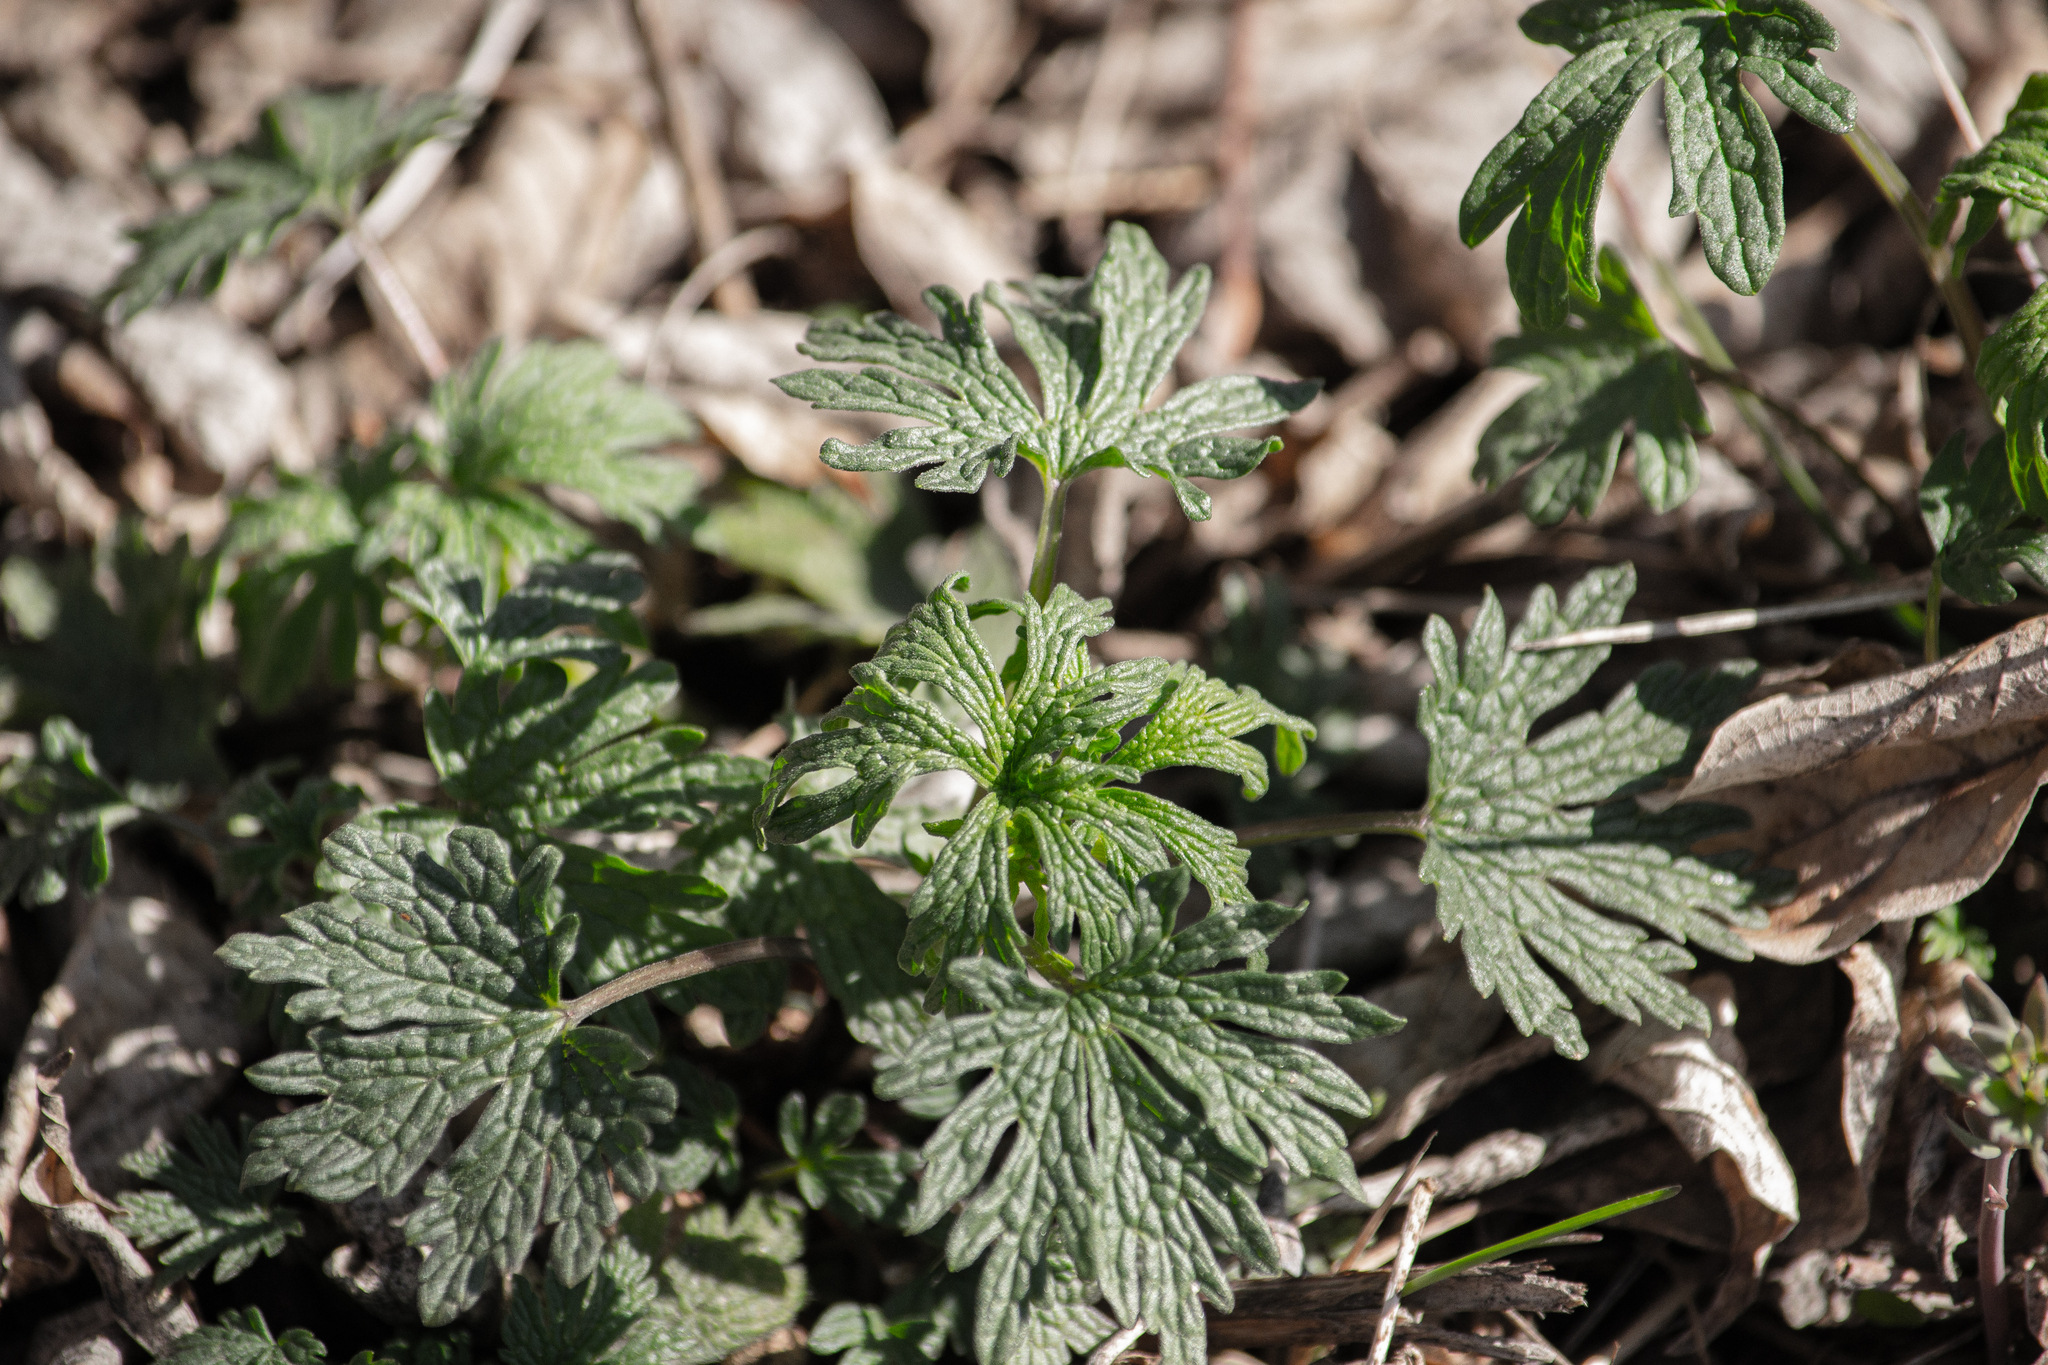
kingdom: Plantae
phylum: Tracheophyta
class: Magnoliopsida
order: Lamiales
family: Lamiaceae
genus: Leonurus
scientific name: Leonurus quinquelobatus
